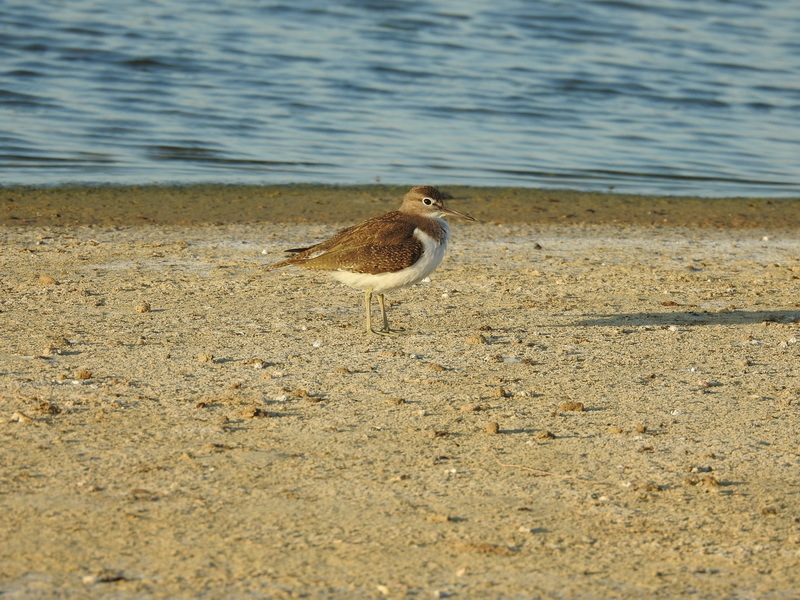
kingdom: Animalia
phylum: Chordata
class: Aves
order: Charadriiformes
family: Scolopacidae
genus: Actitis
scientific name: Actitis hypoleucos
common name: Common sandpiper
